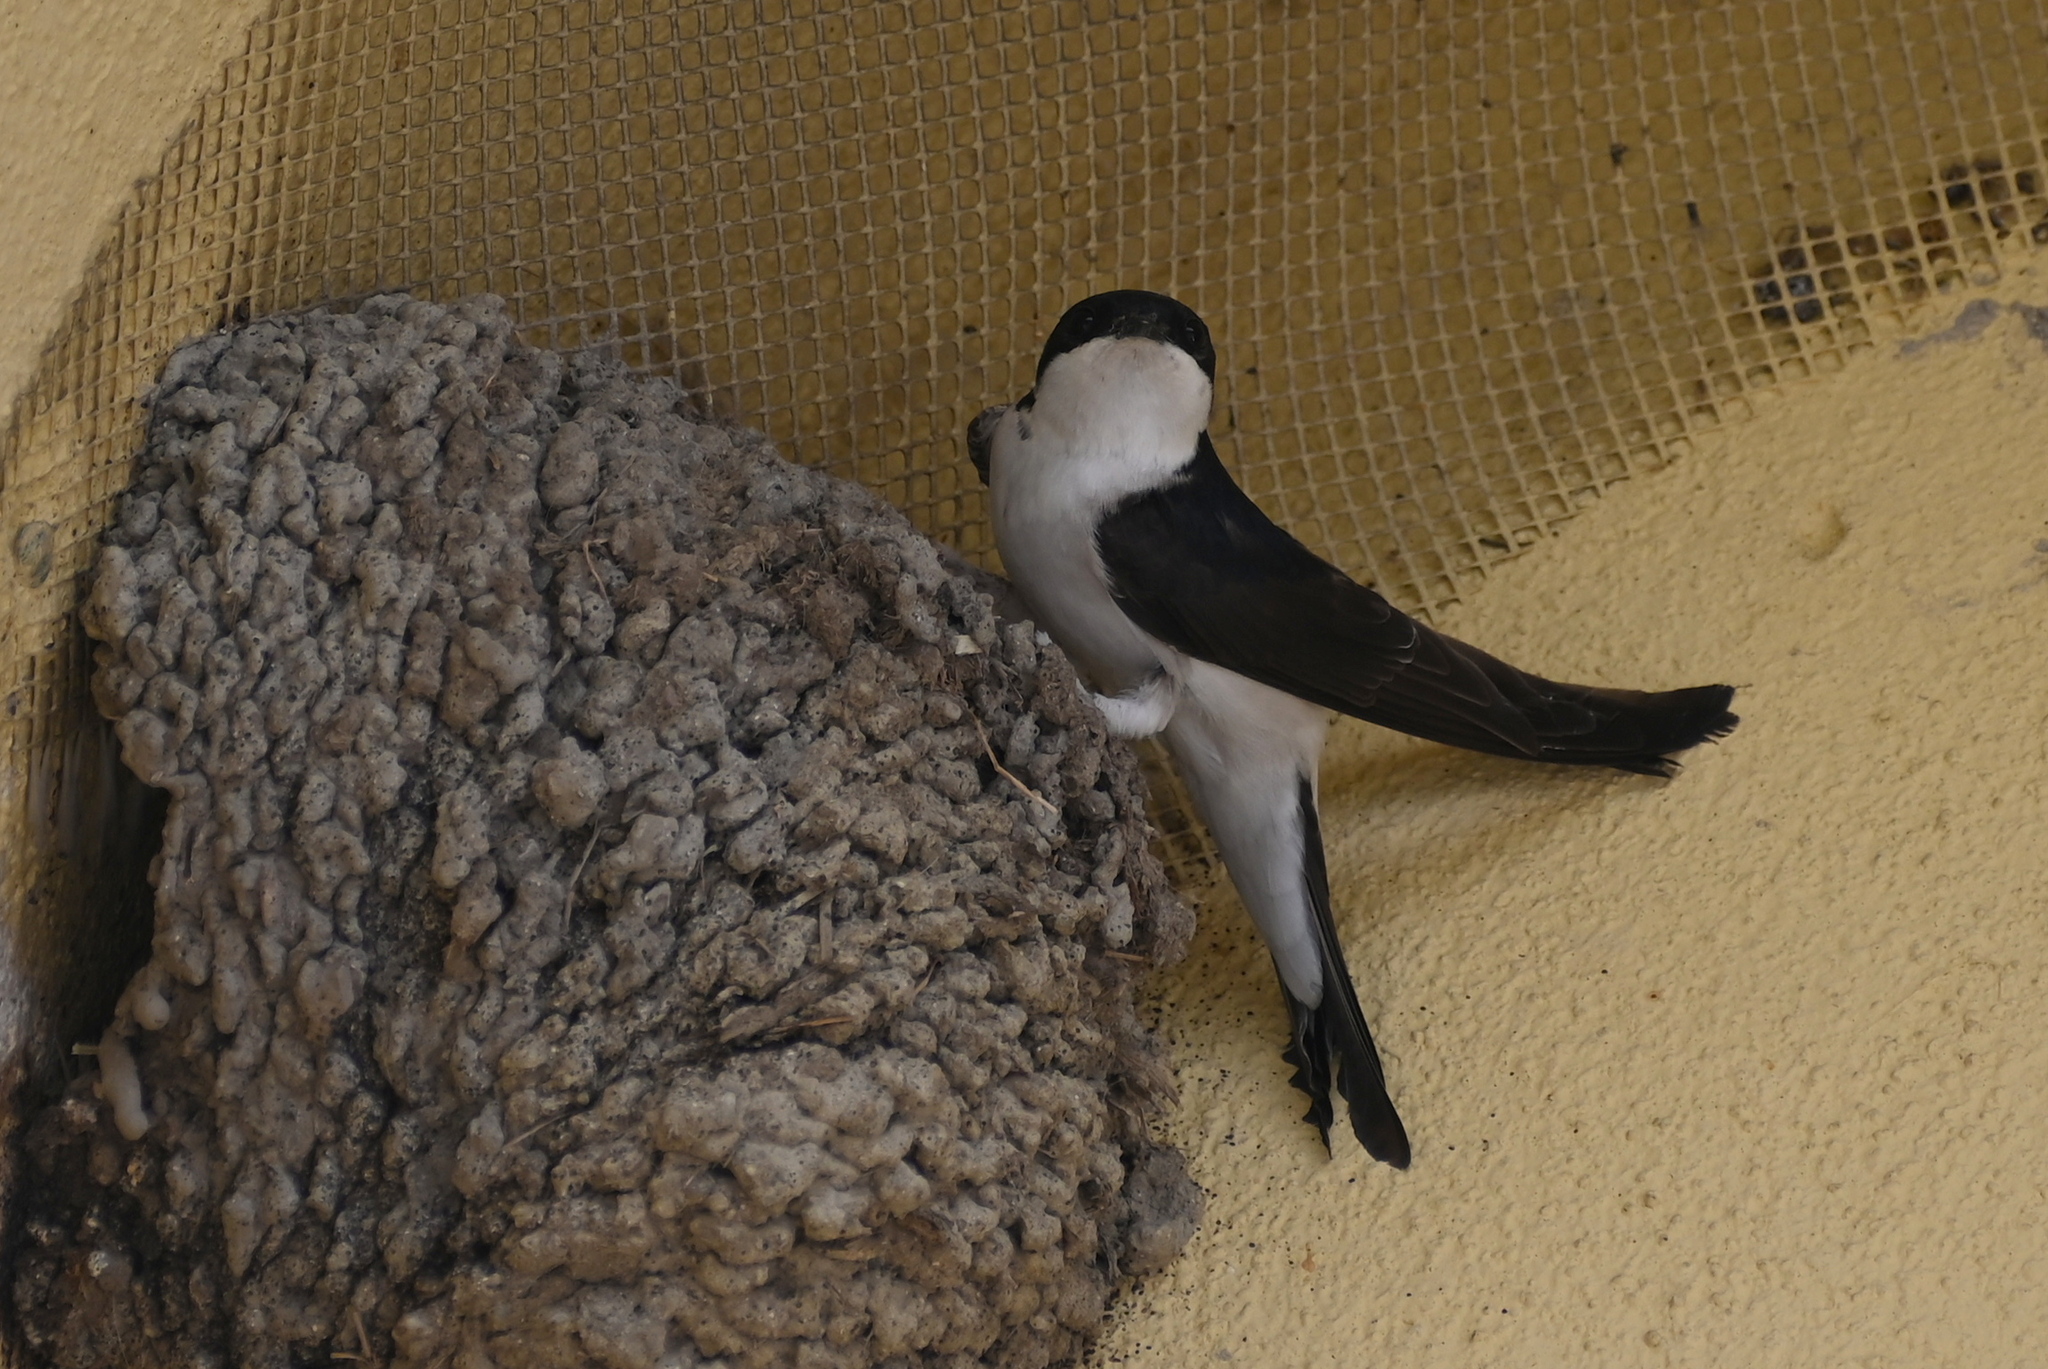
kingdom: Animalia
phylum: Chordata
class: Aves
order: Passeriformes
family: Hirundinidae
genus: Delichon
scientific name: Delichon urbicum
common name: Common house martin
